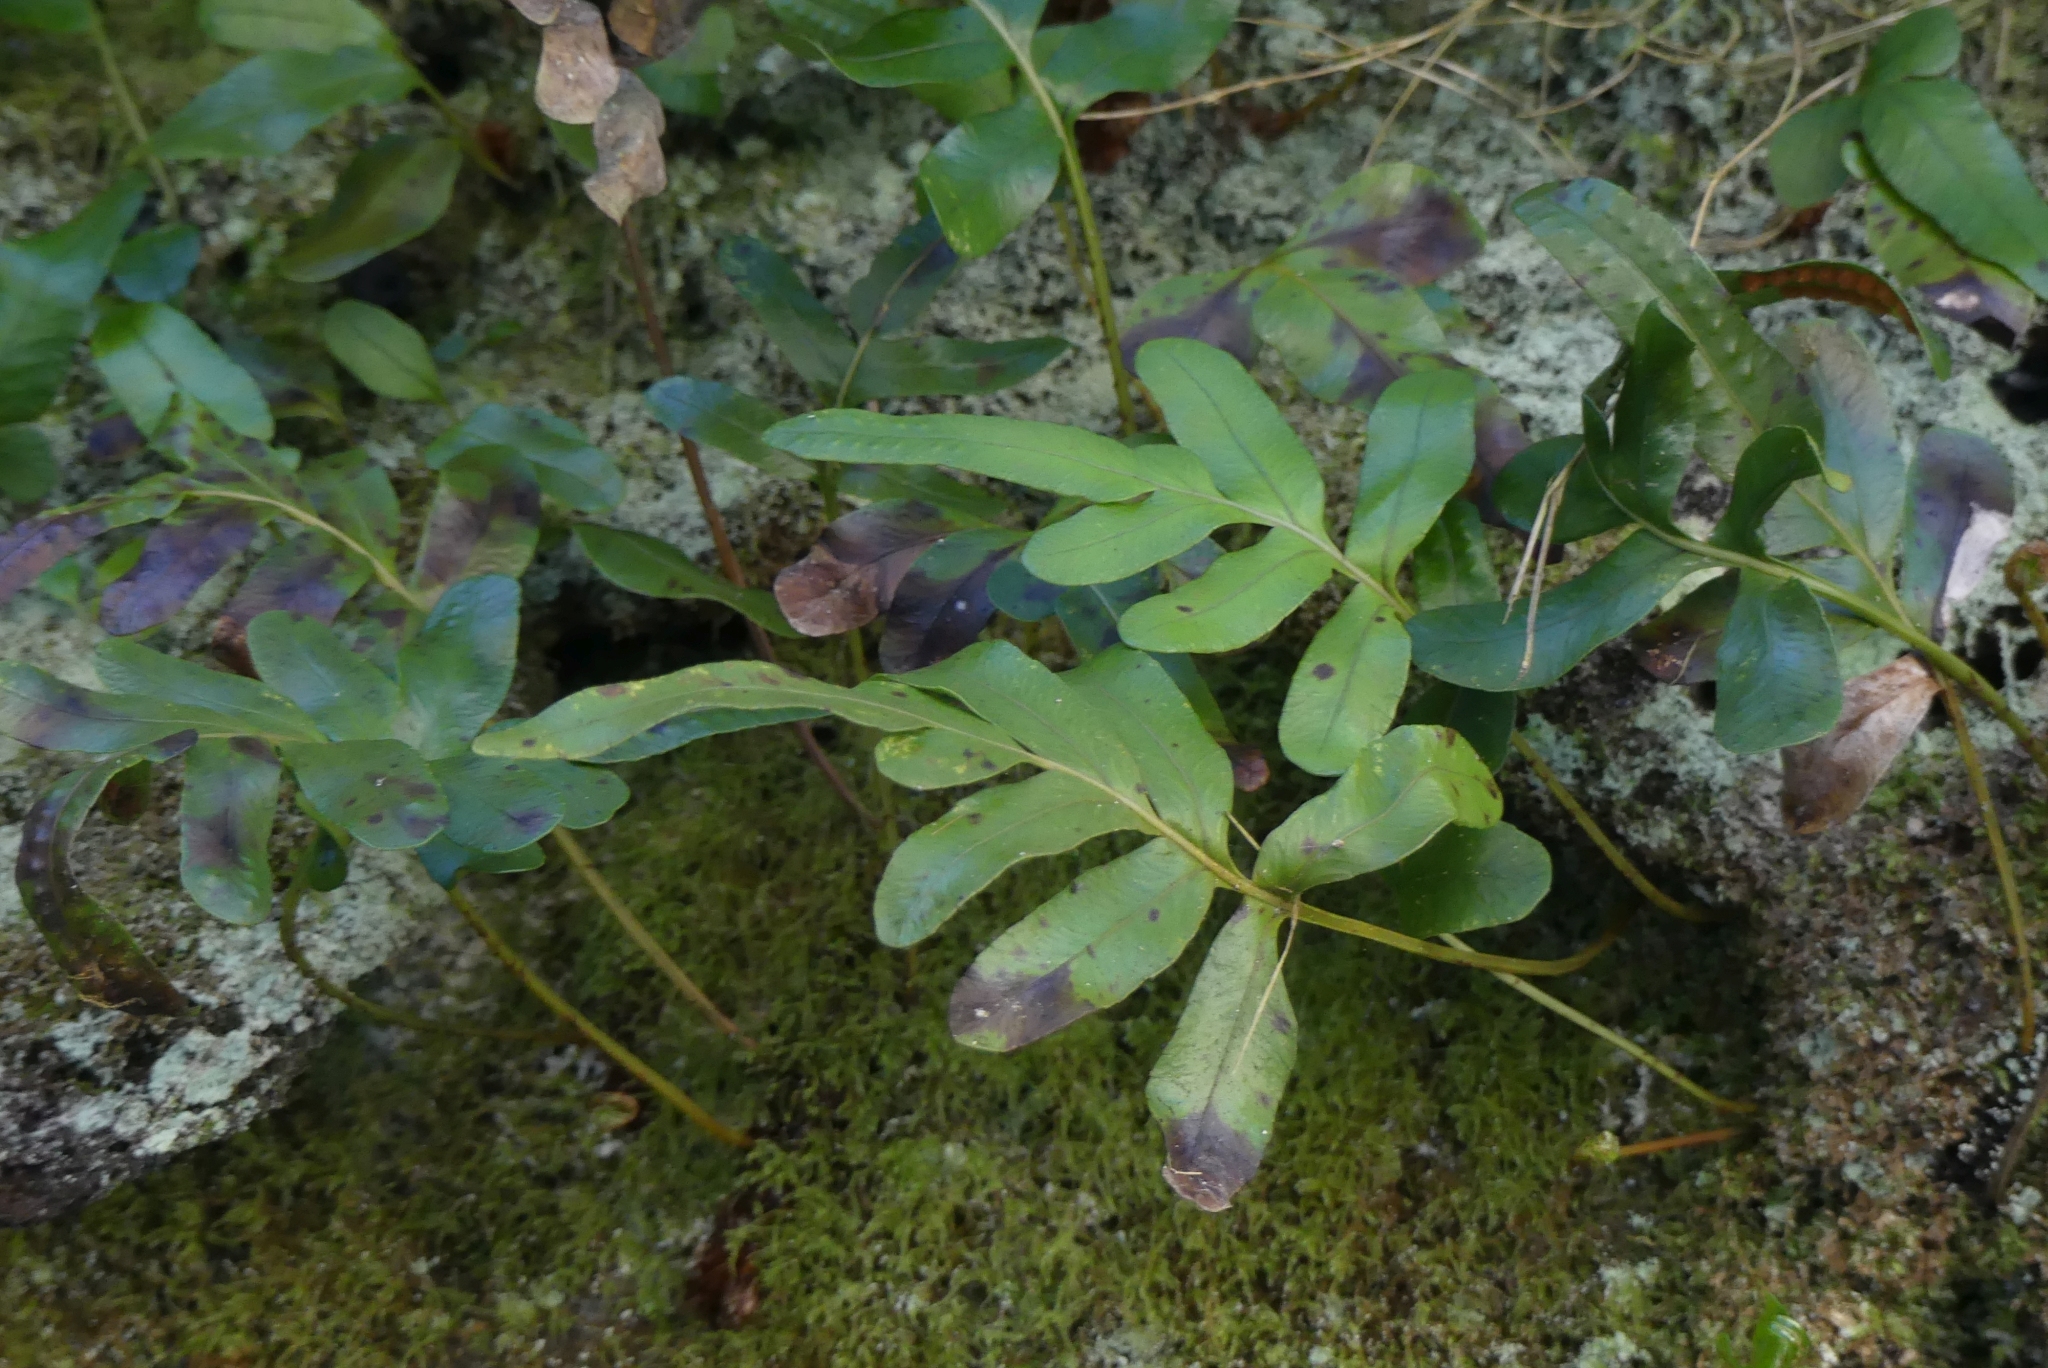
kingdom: Plantae
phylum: Tracheophyta
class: Polypodiopsida
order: Polypodiales
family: Polypodiaceae
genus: Polypodium
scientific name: Polypodium scouleri
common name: Scouler's polypody
